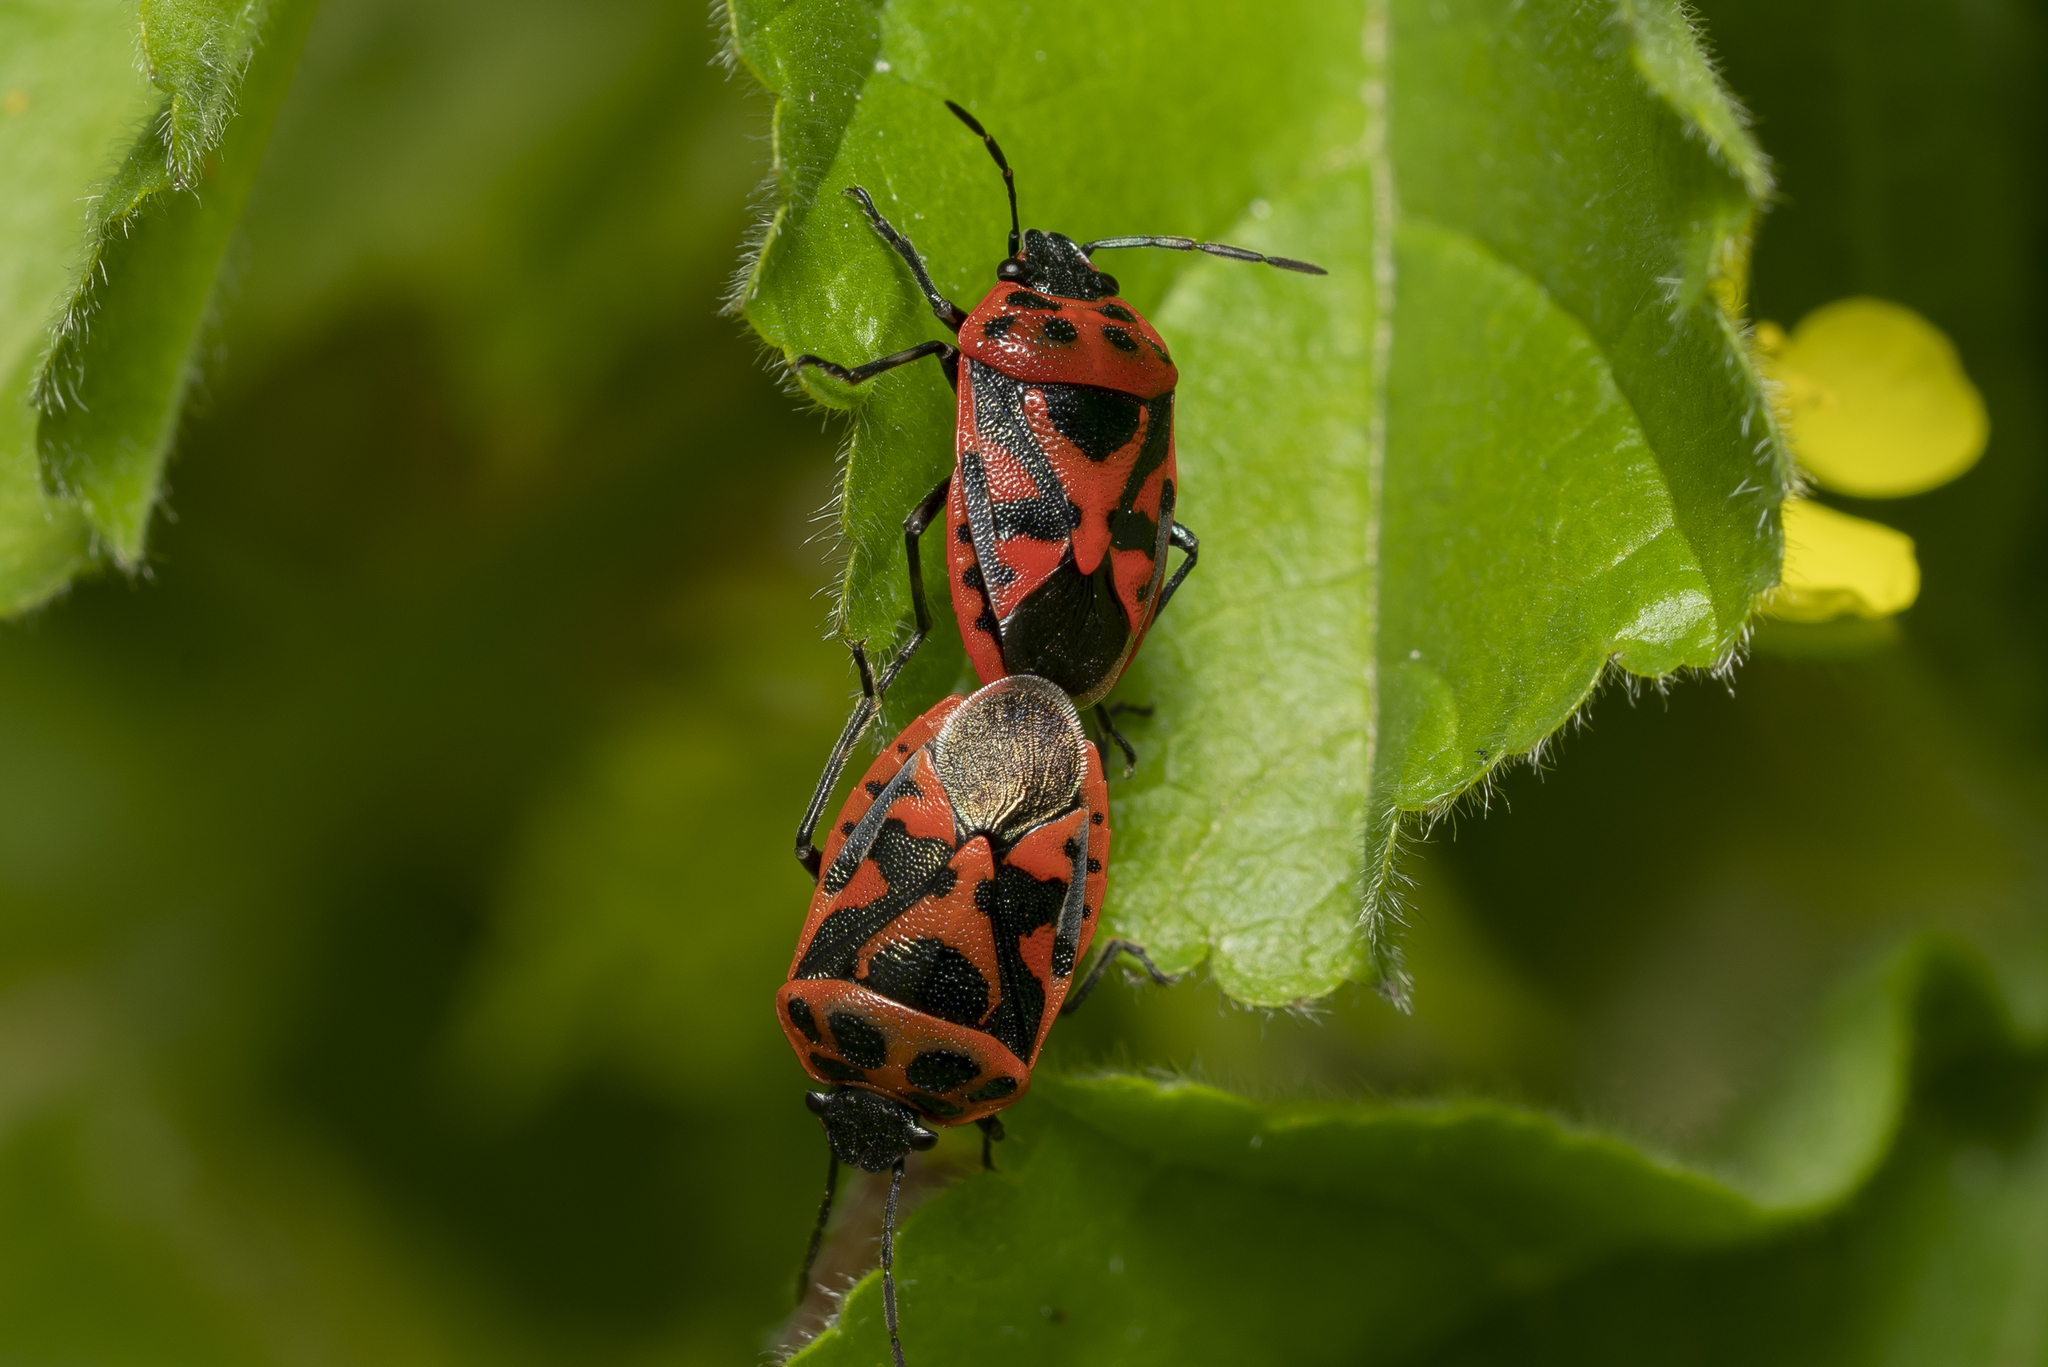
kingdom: Animalia
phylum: Arthropoda
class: Insecta
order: Hemiptera
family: Pentatomidae
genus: Eurydema
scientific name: Eurydema ornata
